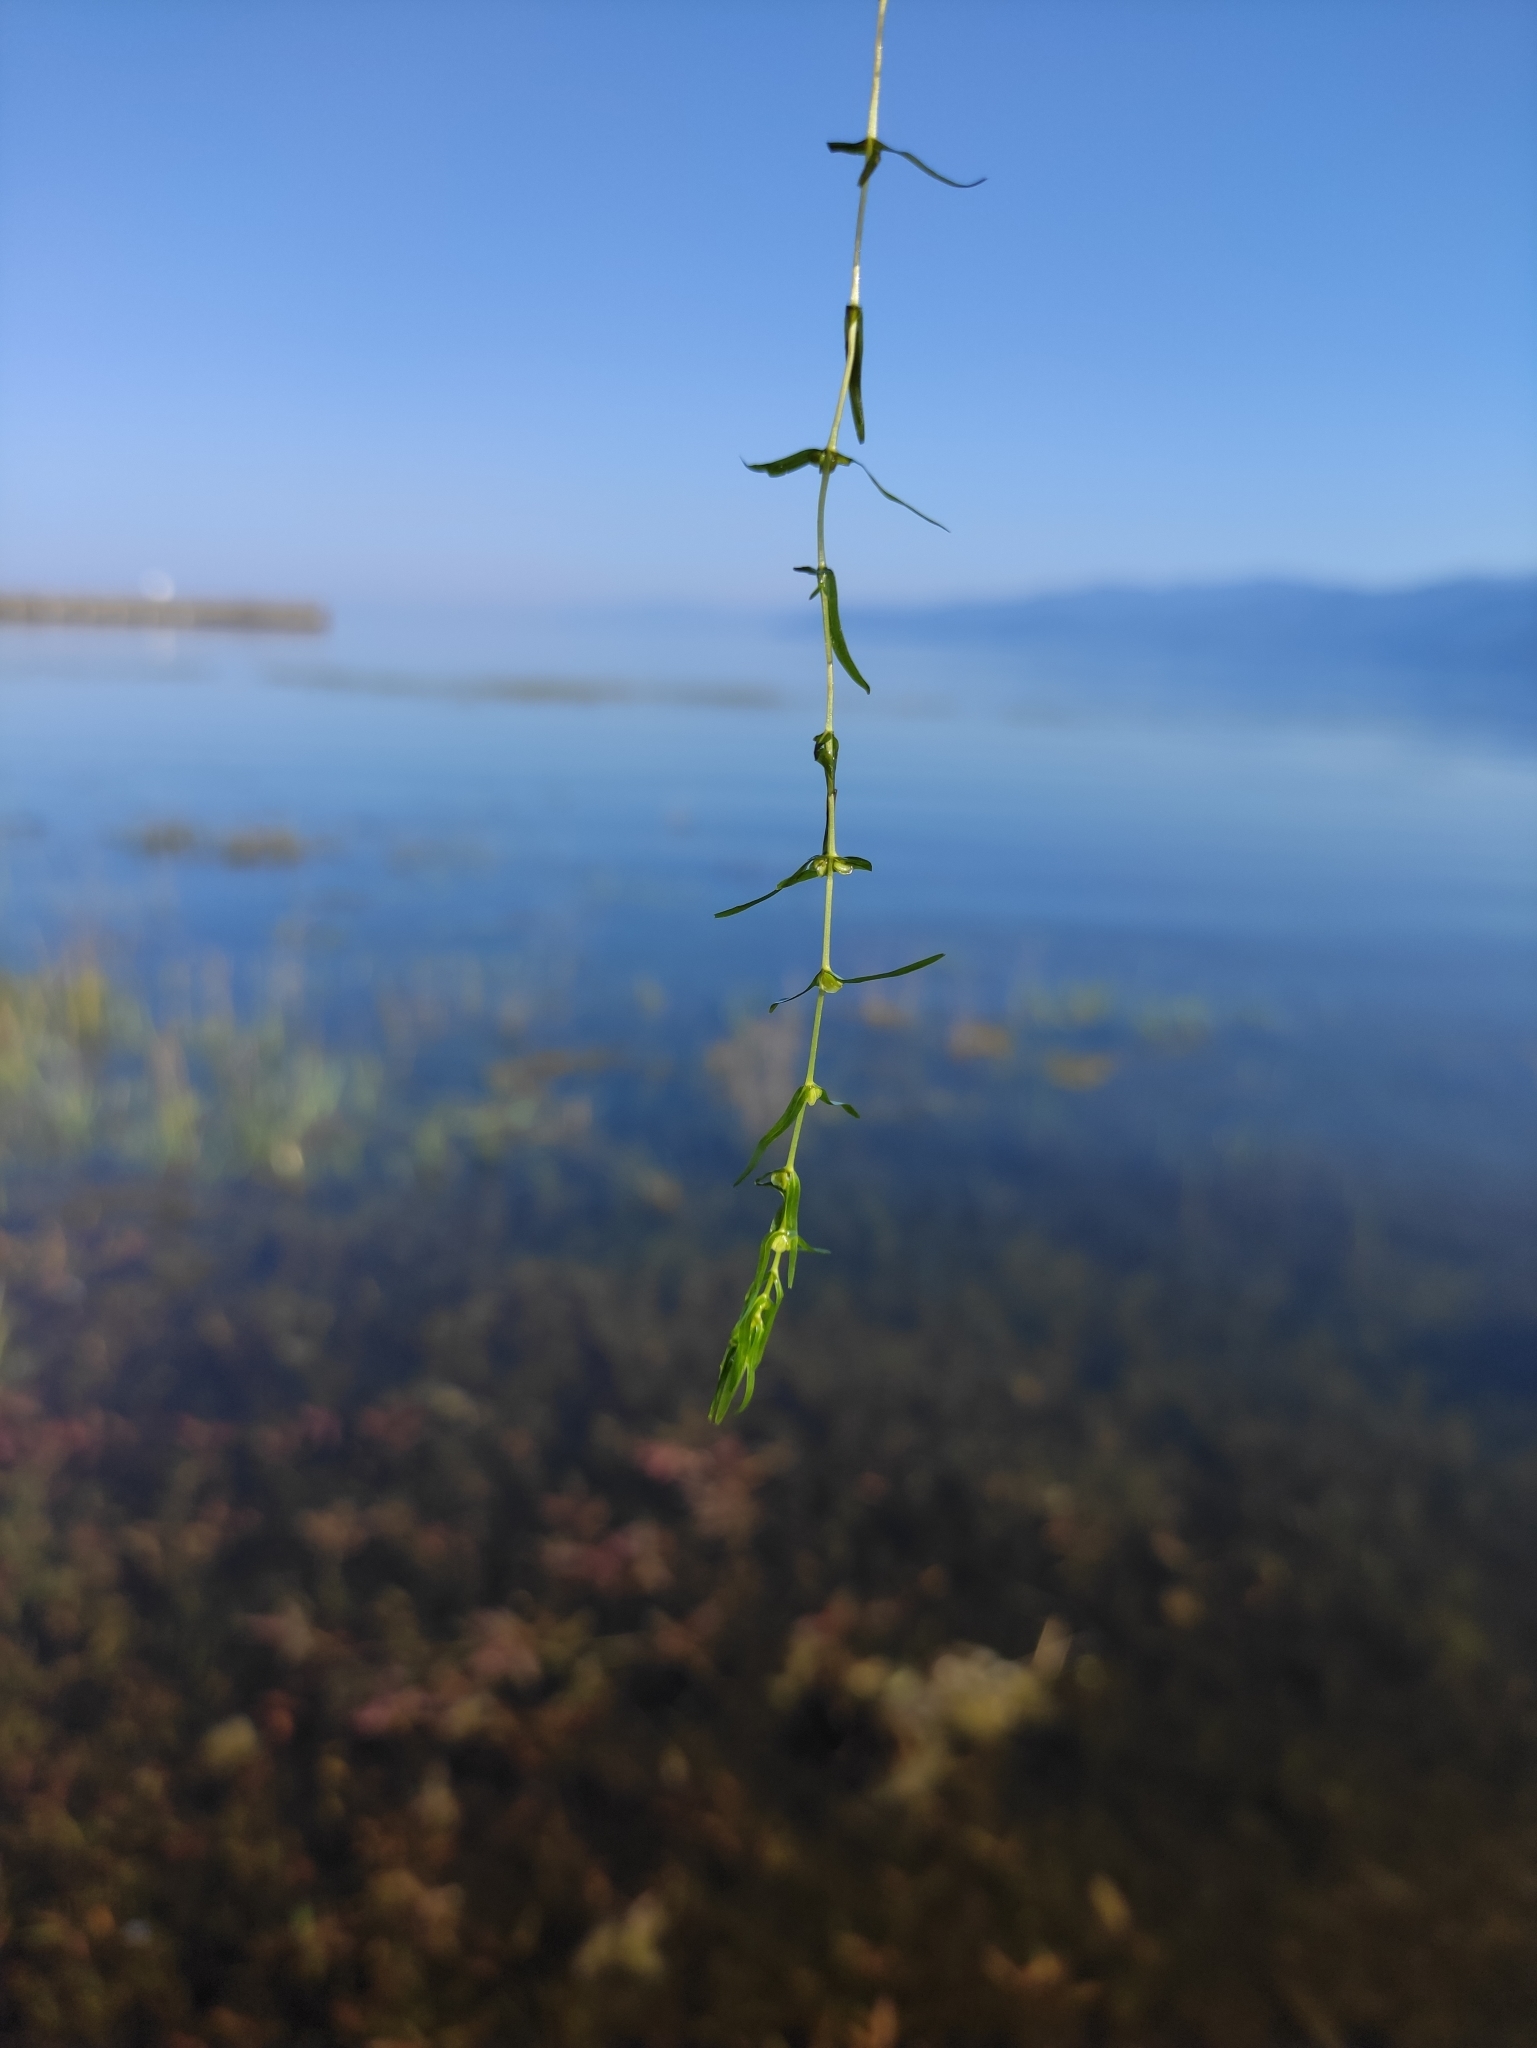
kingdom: Plantae
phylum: Tracheophyta
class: Magnoliopsida
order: Lamiales
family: Plantaginaceae
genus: Callitriche
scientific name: Callitriche palustris
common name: Spring water-starwort
